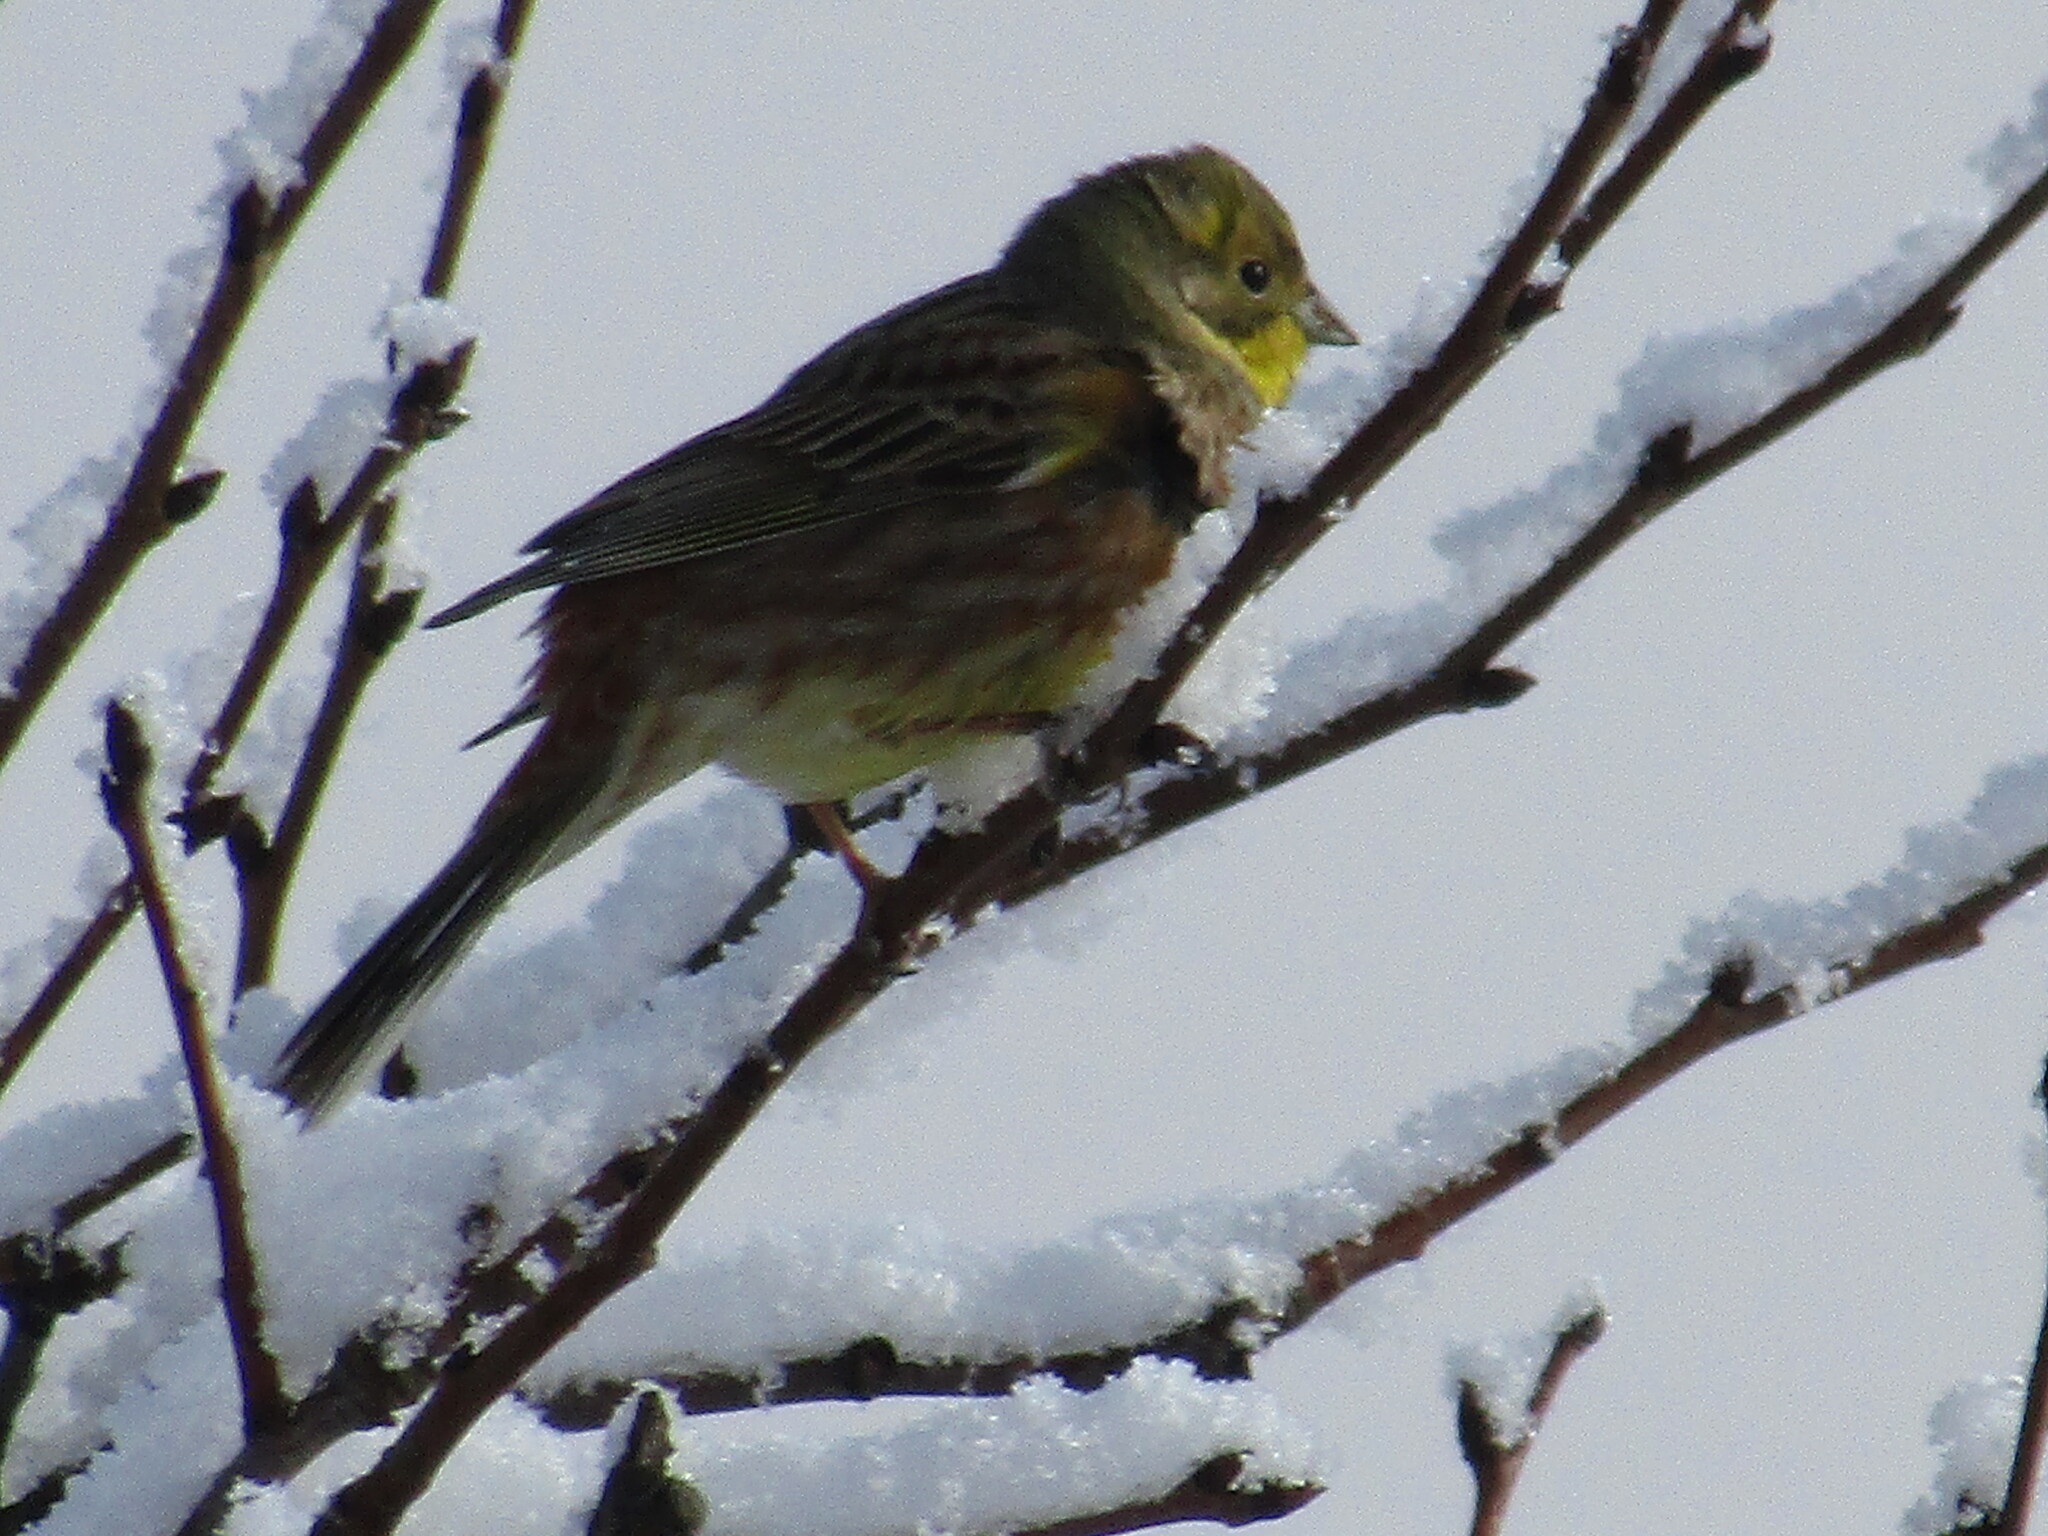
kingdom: Animalia
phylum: Chordata
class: Aves
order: Passeriformes
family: Emberizidae
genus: Emberiza
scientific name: Emberiza citrinella
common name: Yellowhammer
